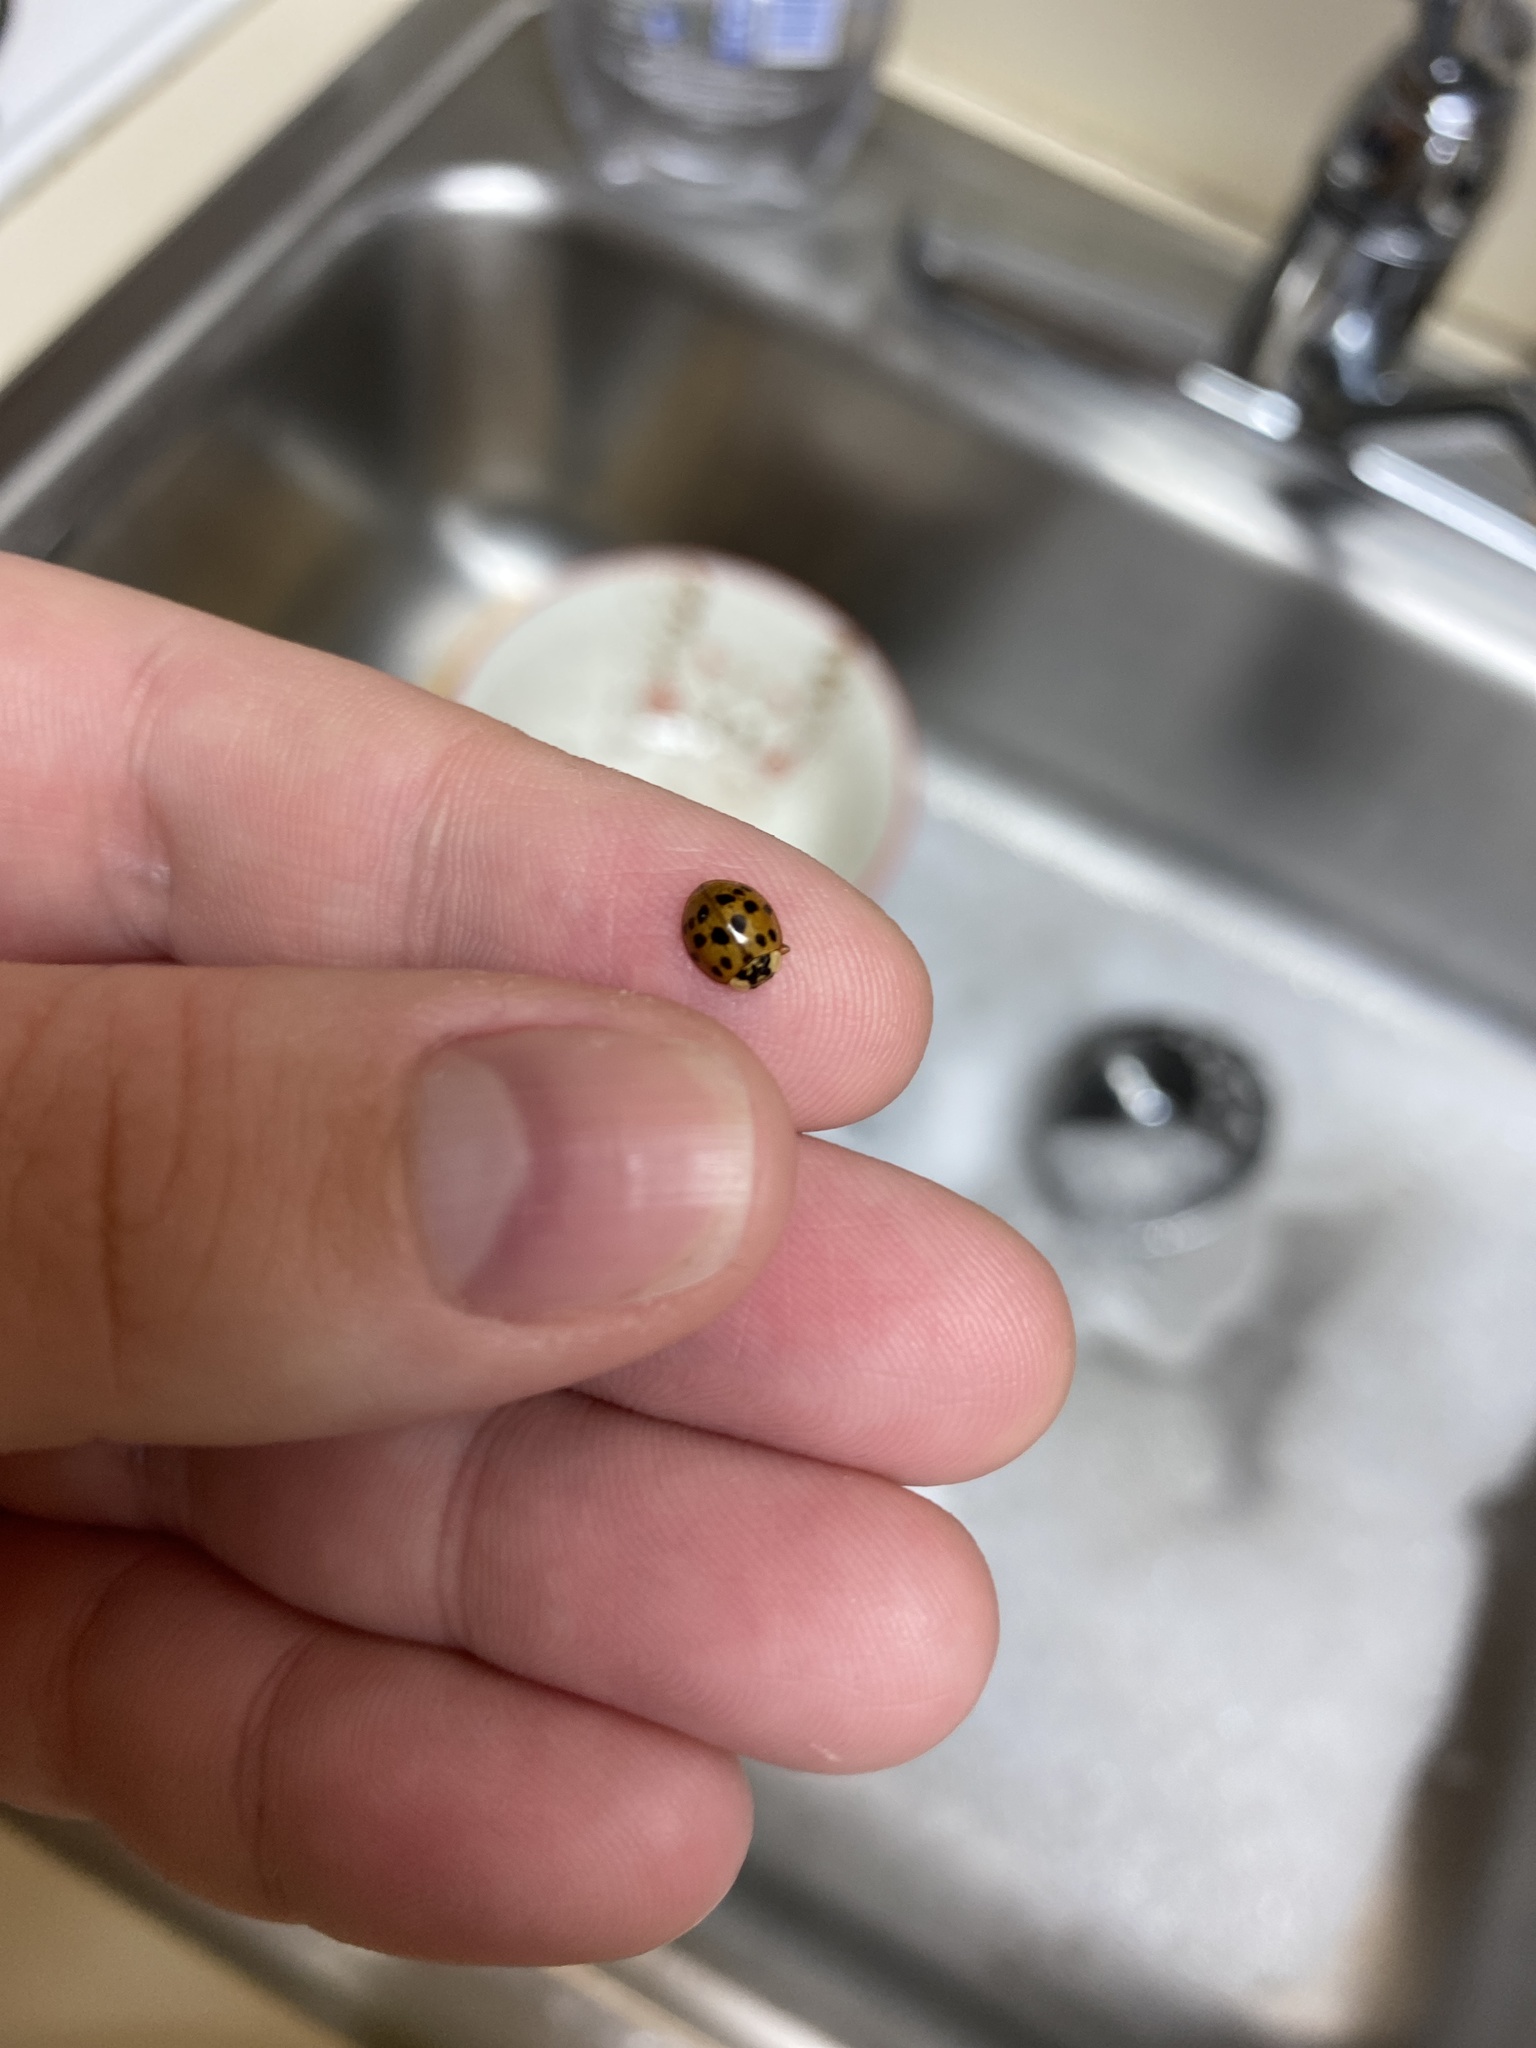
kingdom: Animalia
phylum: Arthropoda
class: Insecta
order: Coleoptera
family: Coccinellidae
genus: Harmonia
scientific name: Harmonia axyridis
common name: Harlequin ladybird
